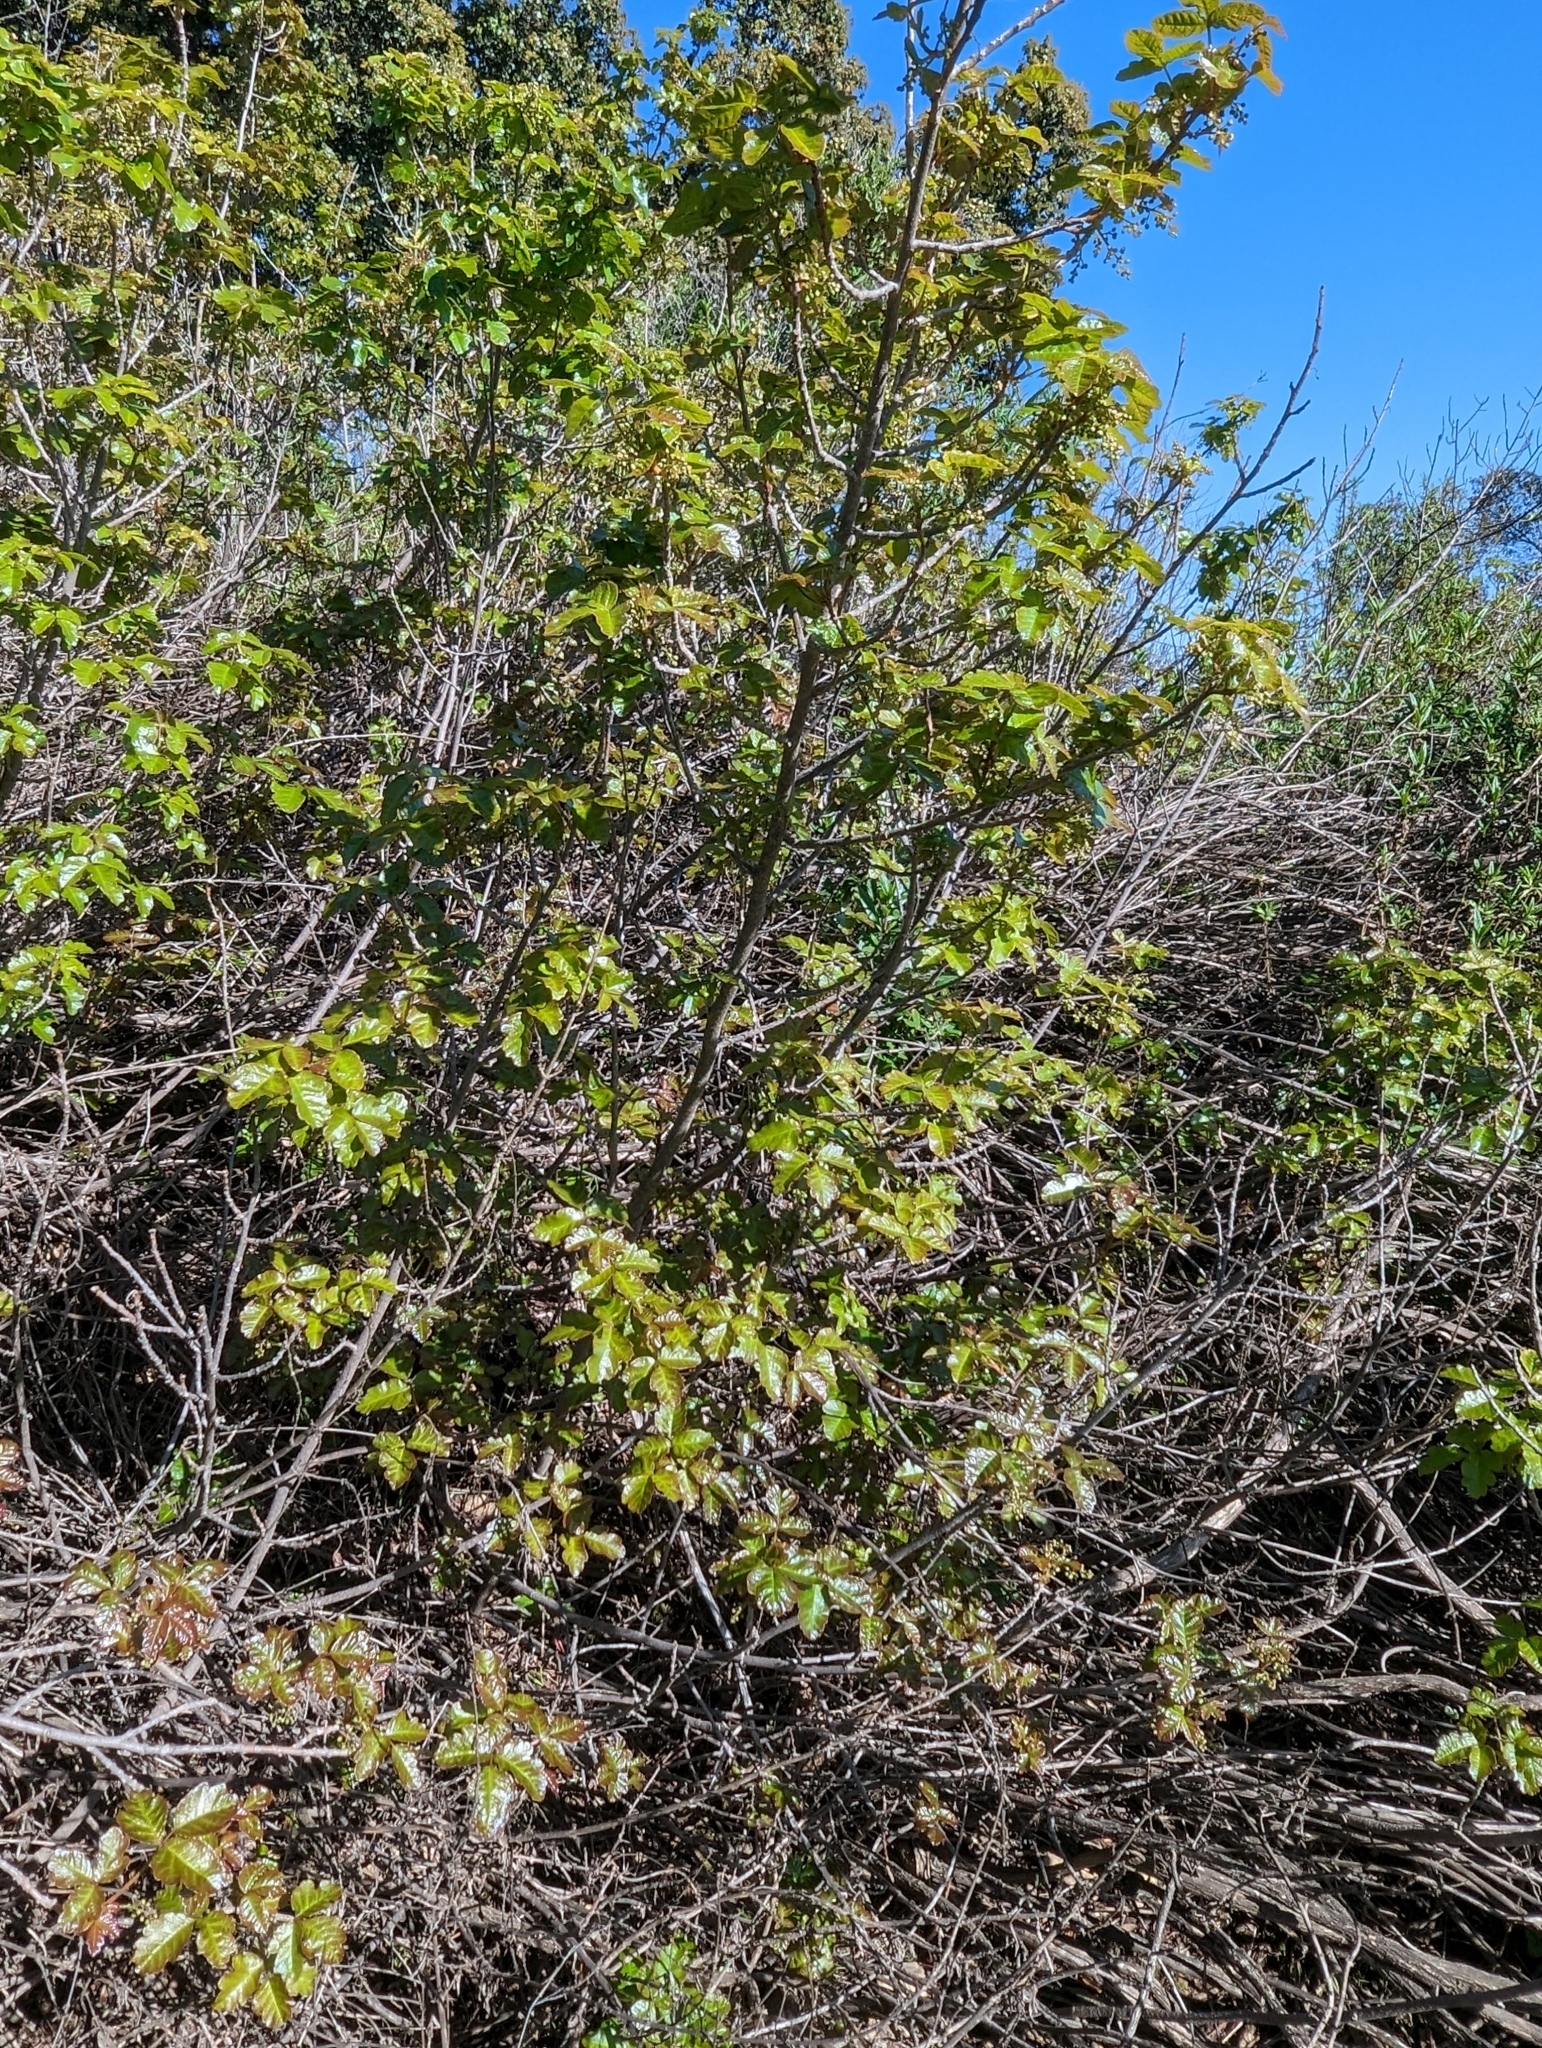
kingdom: Plantae
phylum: Tracheophyta
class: Magnoliopsida
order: Sapindales
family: Anacardiaceae
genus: Toxicodendron
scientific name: Toxicodendron diversilobum
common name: Pacific poison-oak
